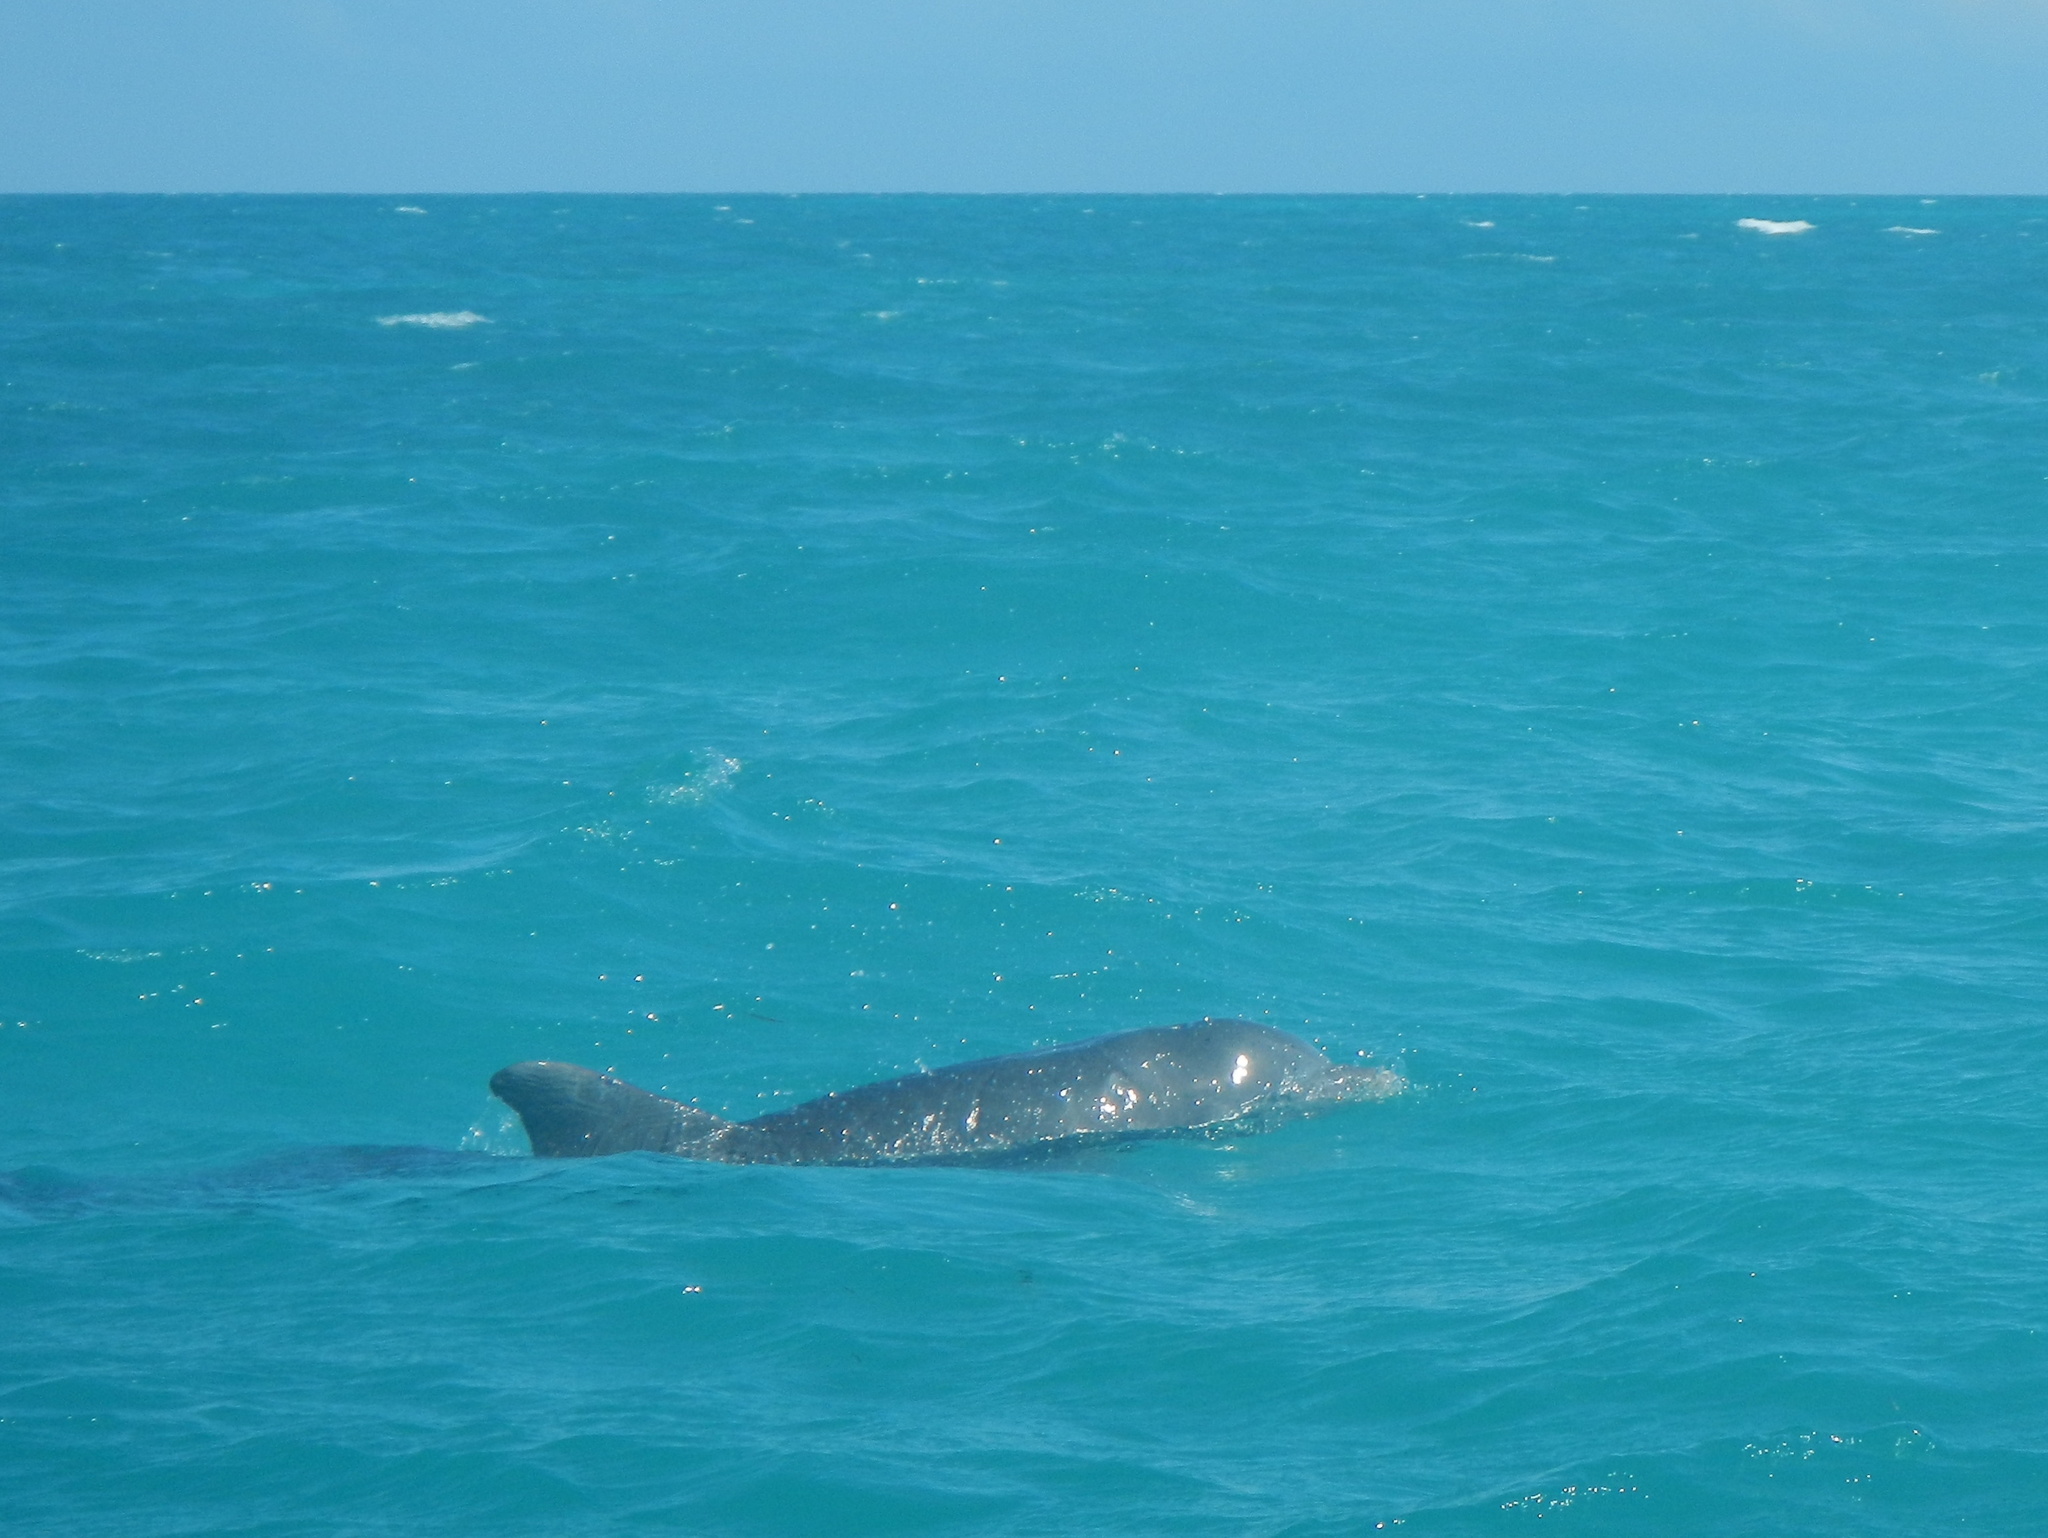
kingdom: Animalia
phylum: Chordata
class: Mammalia
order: Cetacea
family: Delphinidae
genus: Tursiops
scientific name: Tursiops truncatus
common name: Bottlenose dolphin
